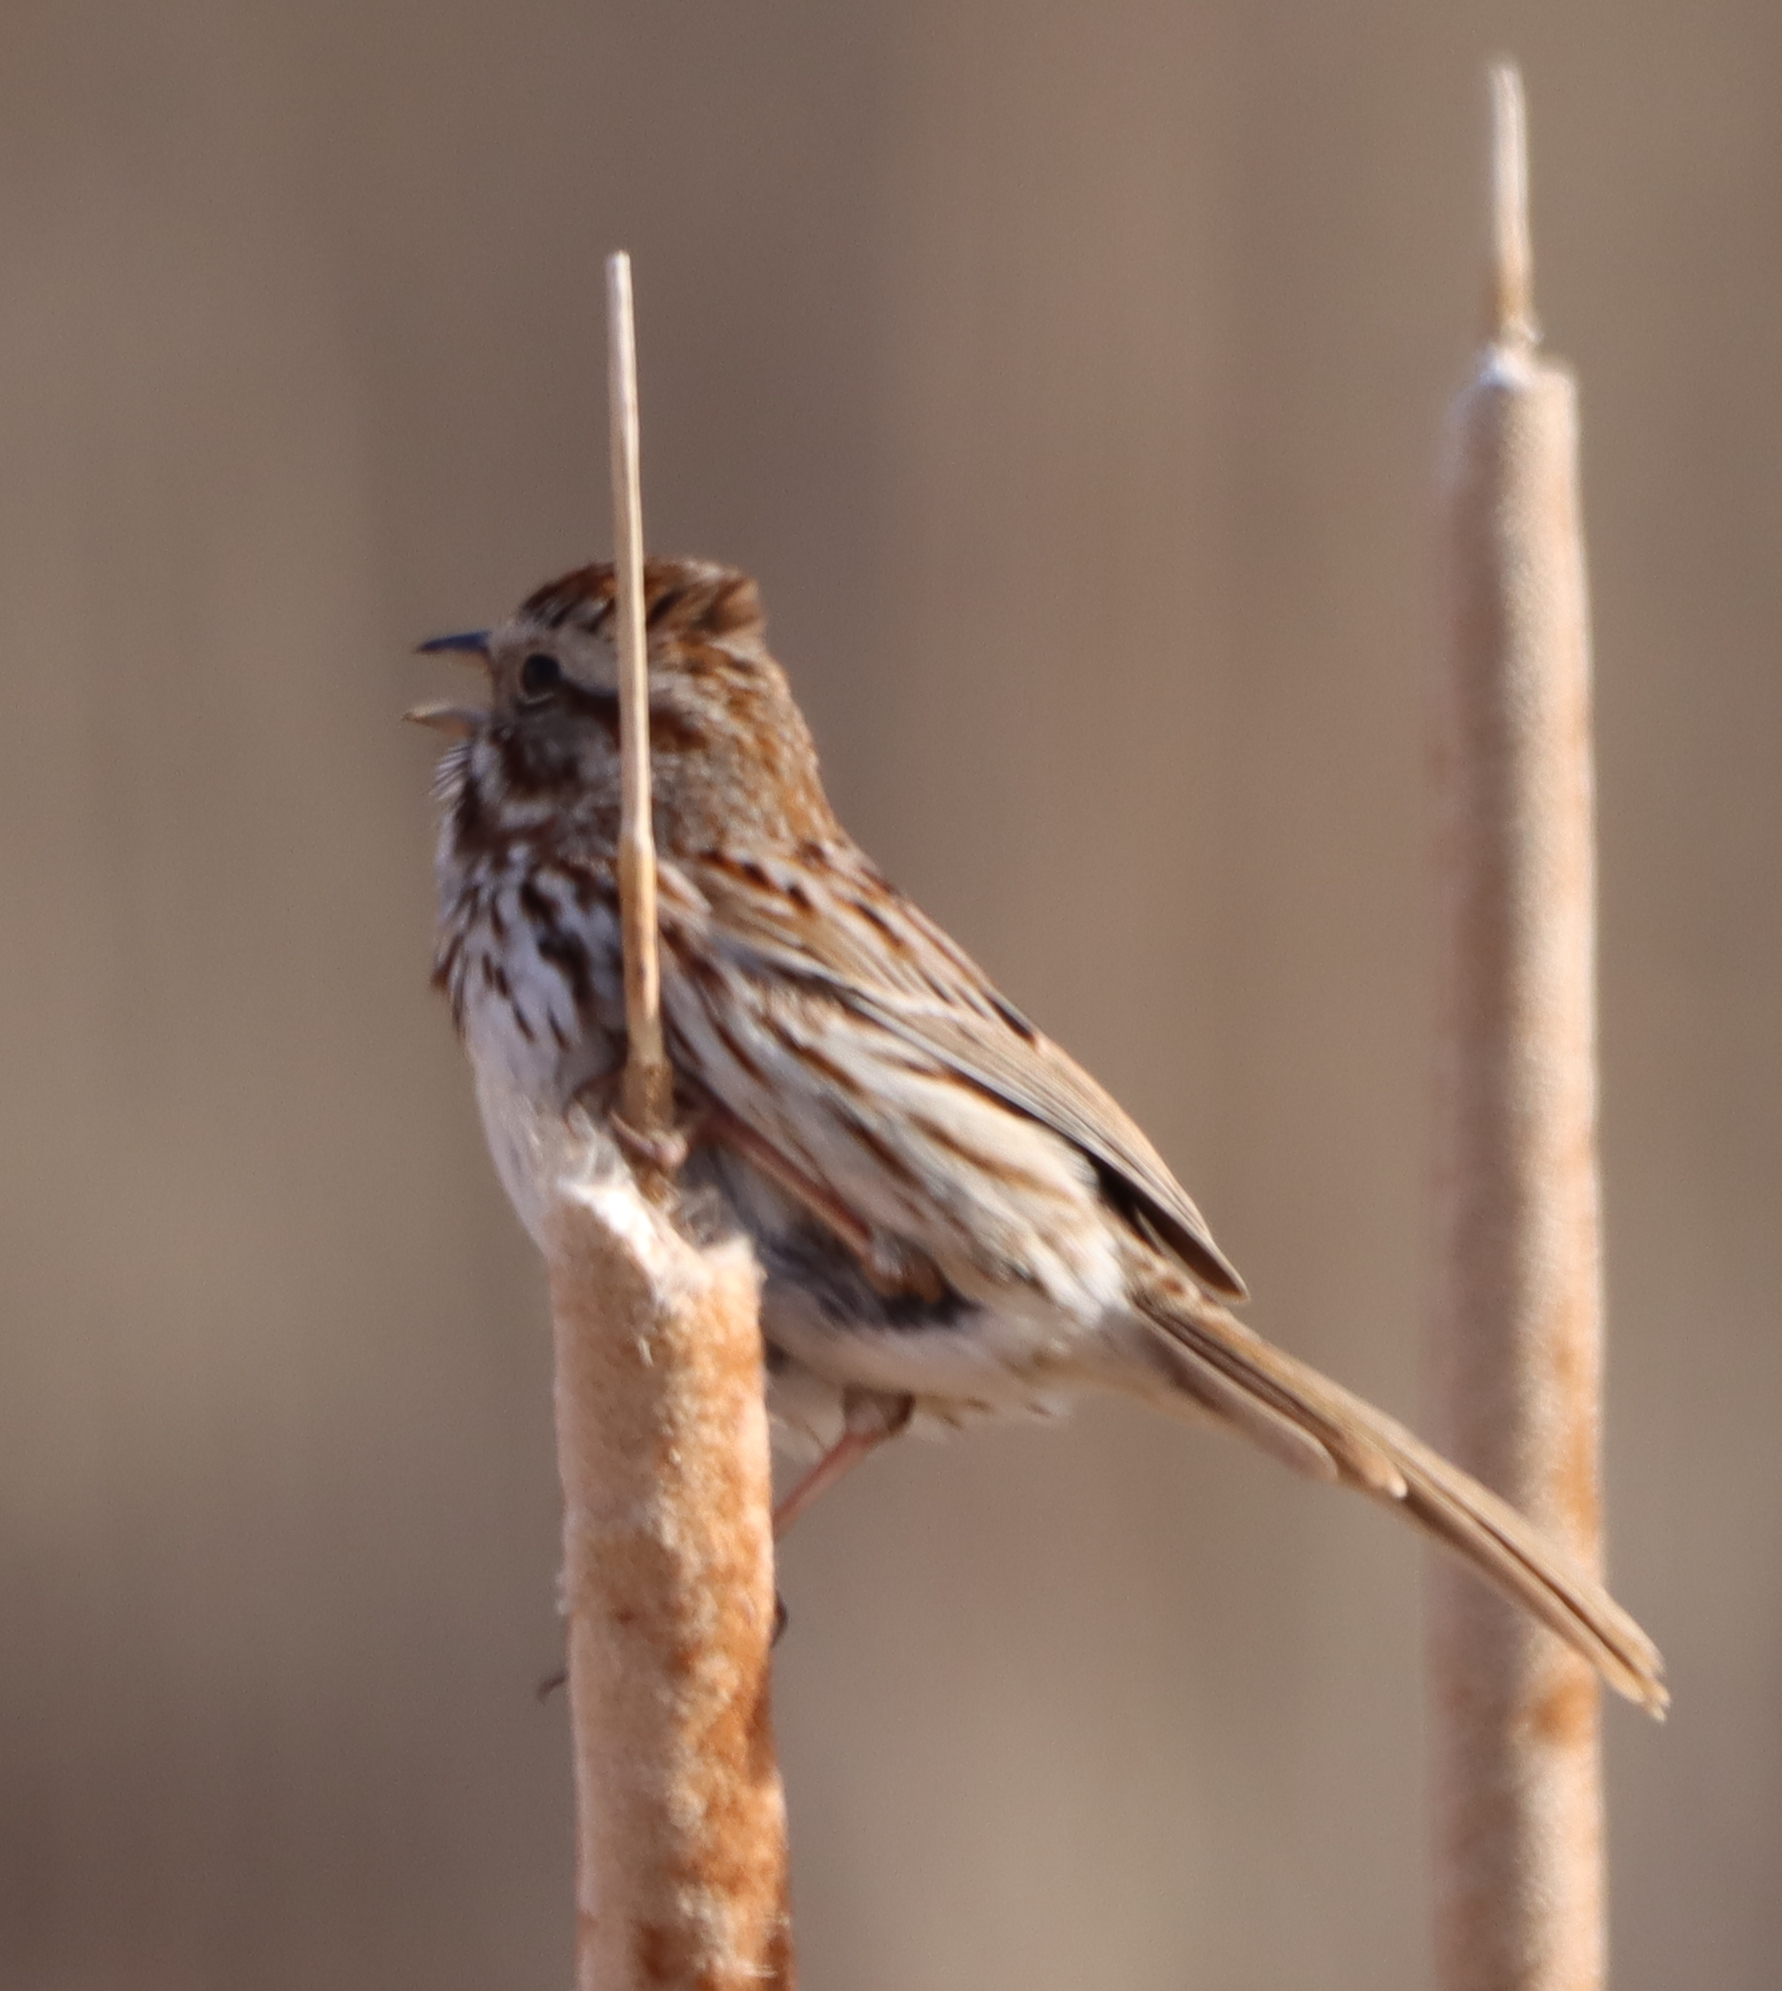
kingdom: Animalia
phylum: Chordata
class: Aves
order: Passeriformes
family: Passerellidae
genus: Melospiza
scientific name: Melospiza melodia
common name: Song sparrow
